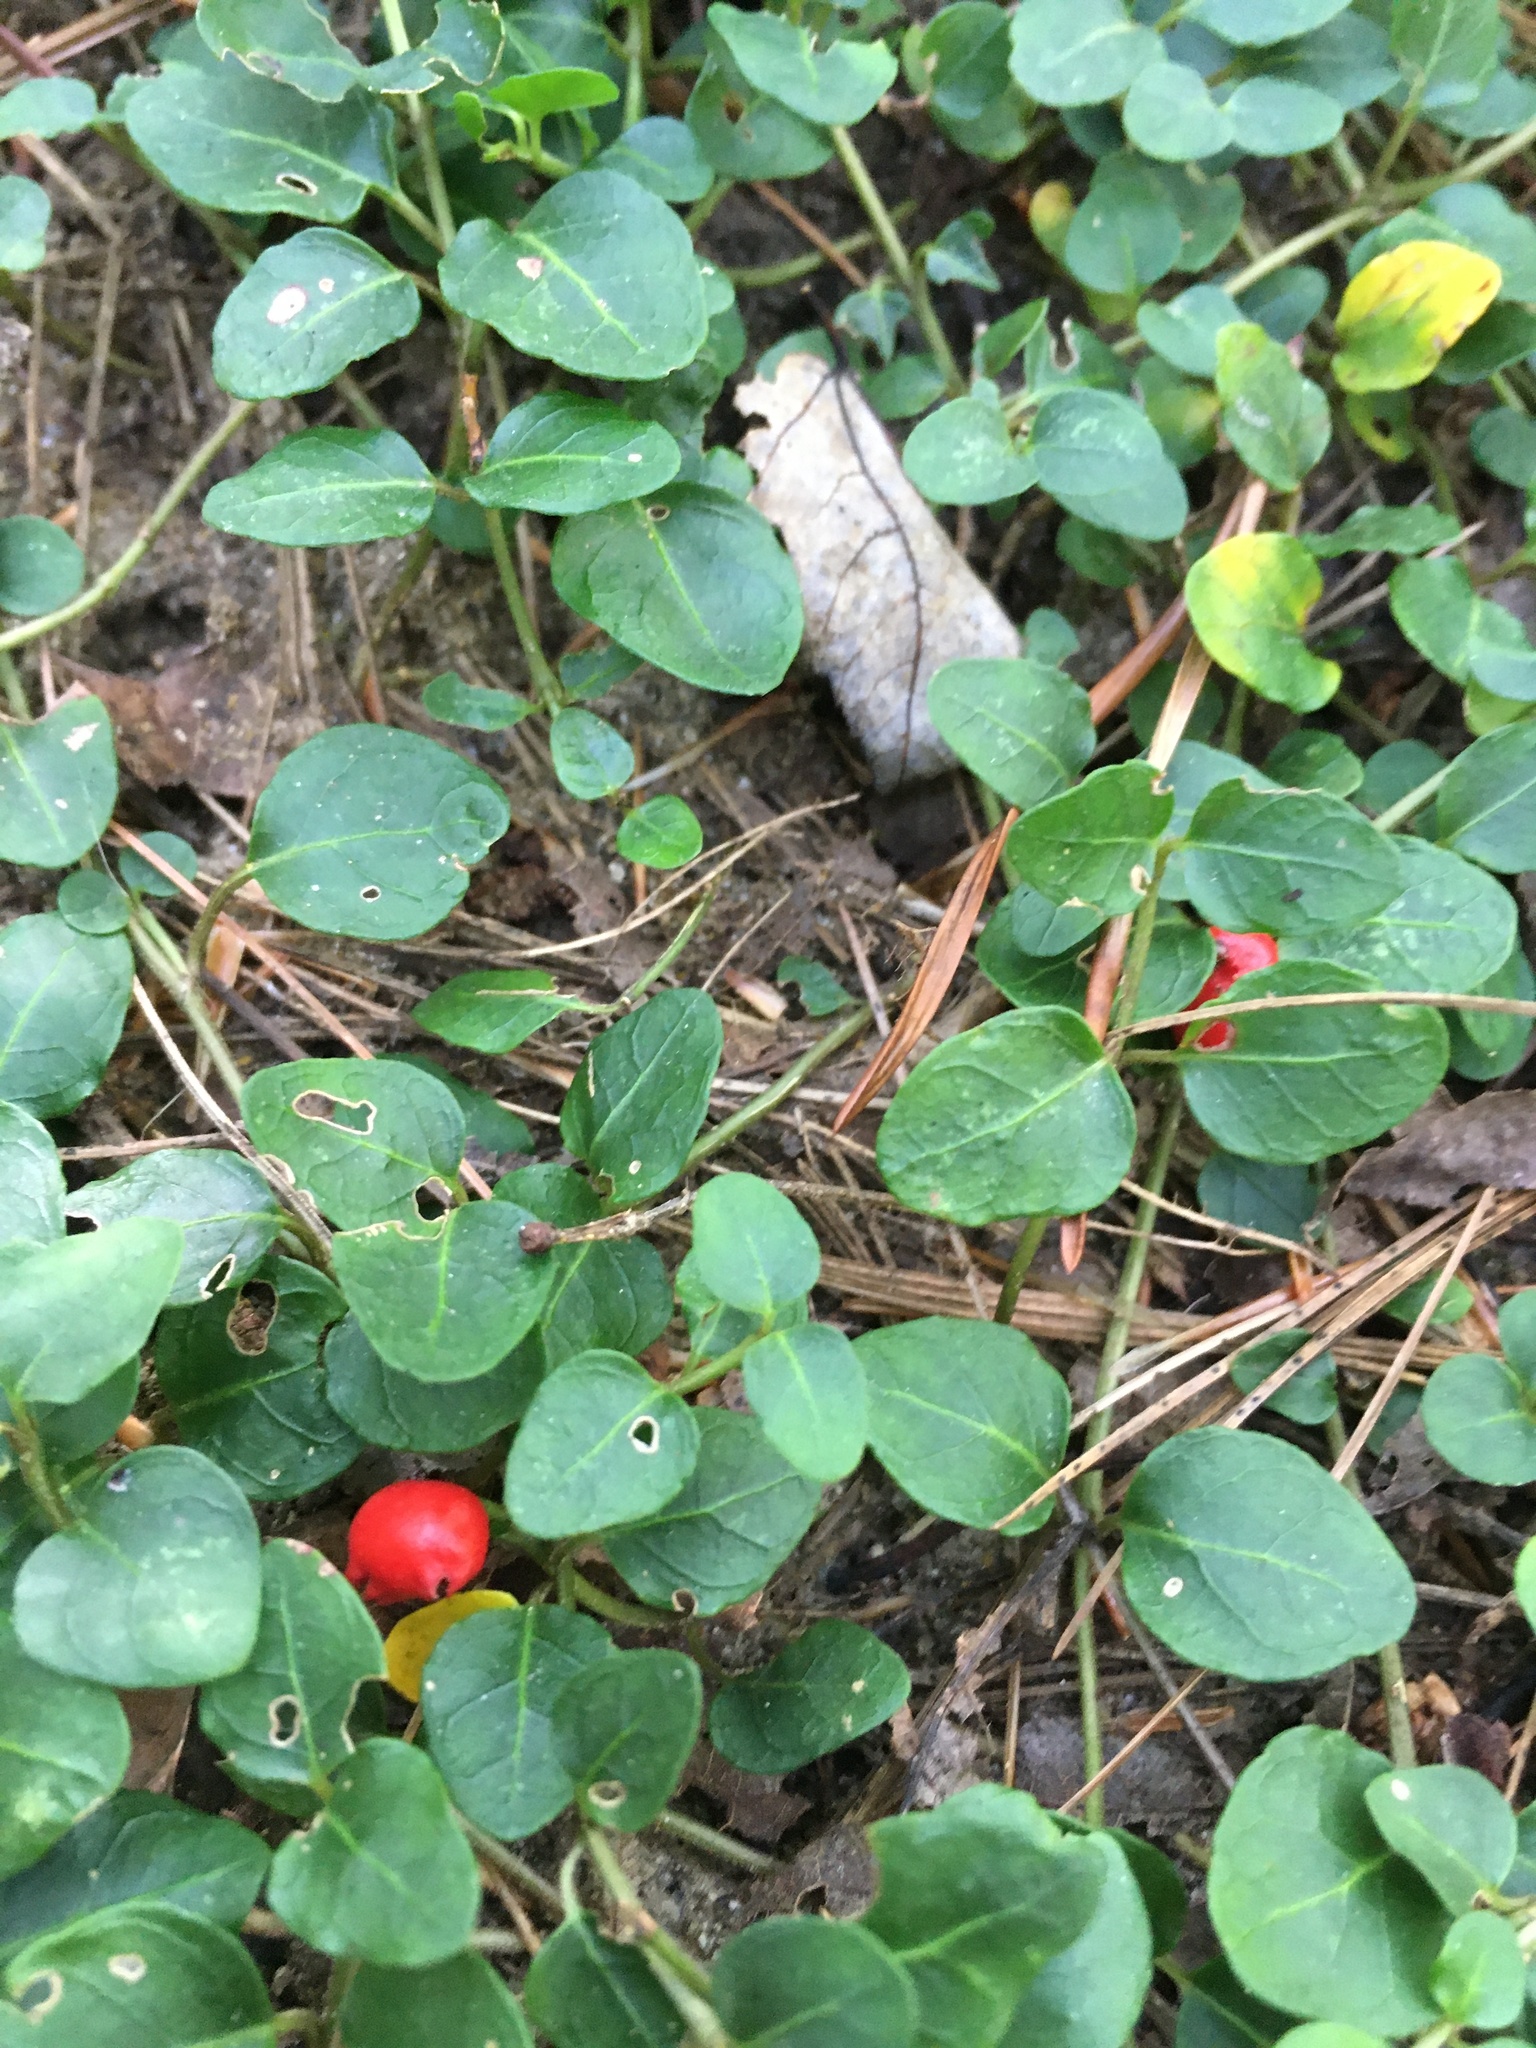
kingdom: Plantae
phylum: Tracheophyta
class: Magnoliopsida
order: Gentianales
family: Rubiaceae
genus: Mitchella
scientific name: Mitchella repens
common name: Partridge-berry
